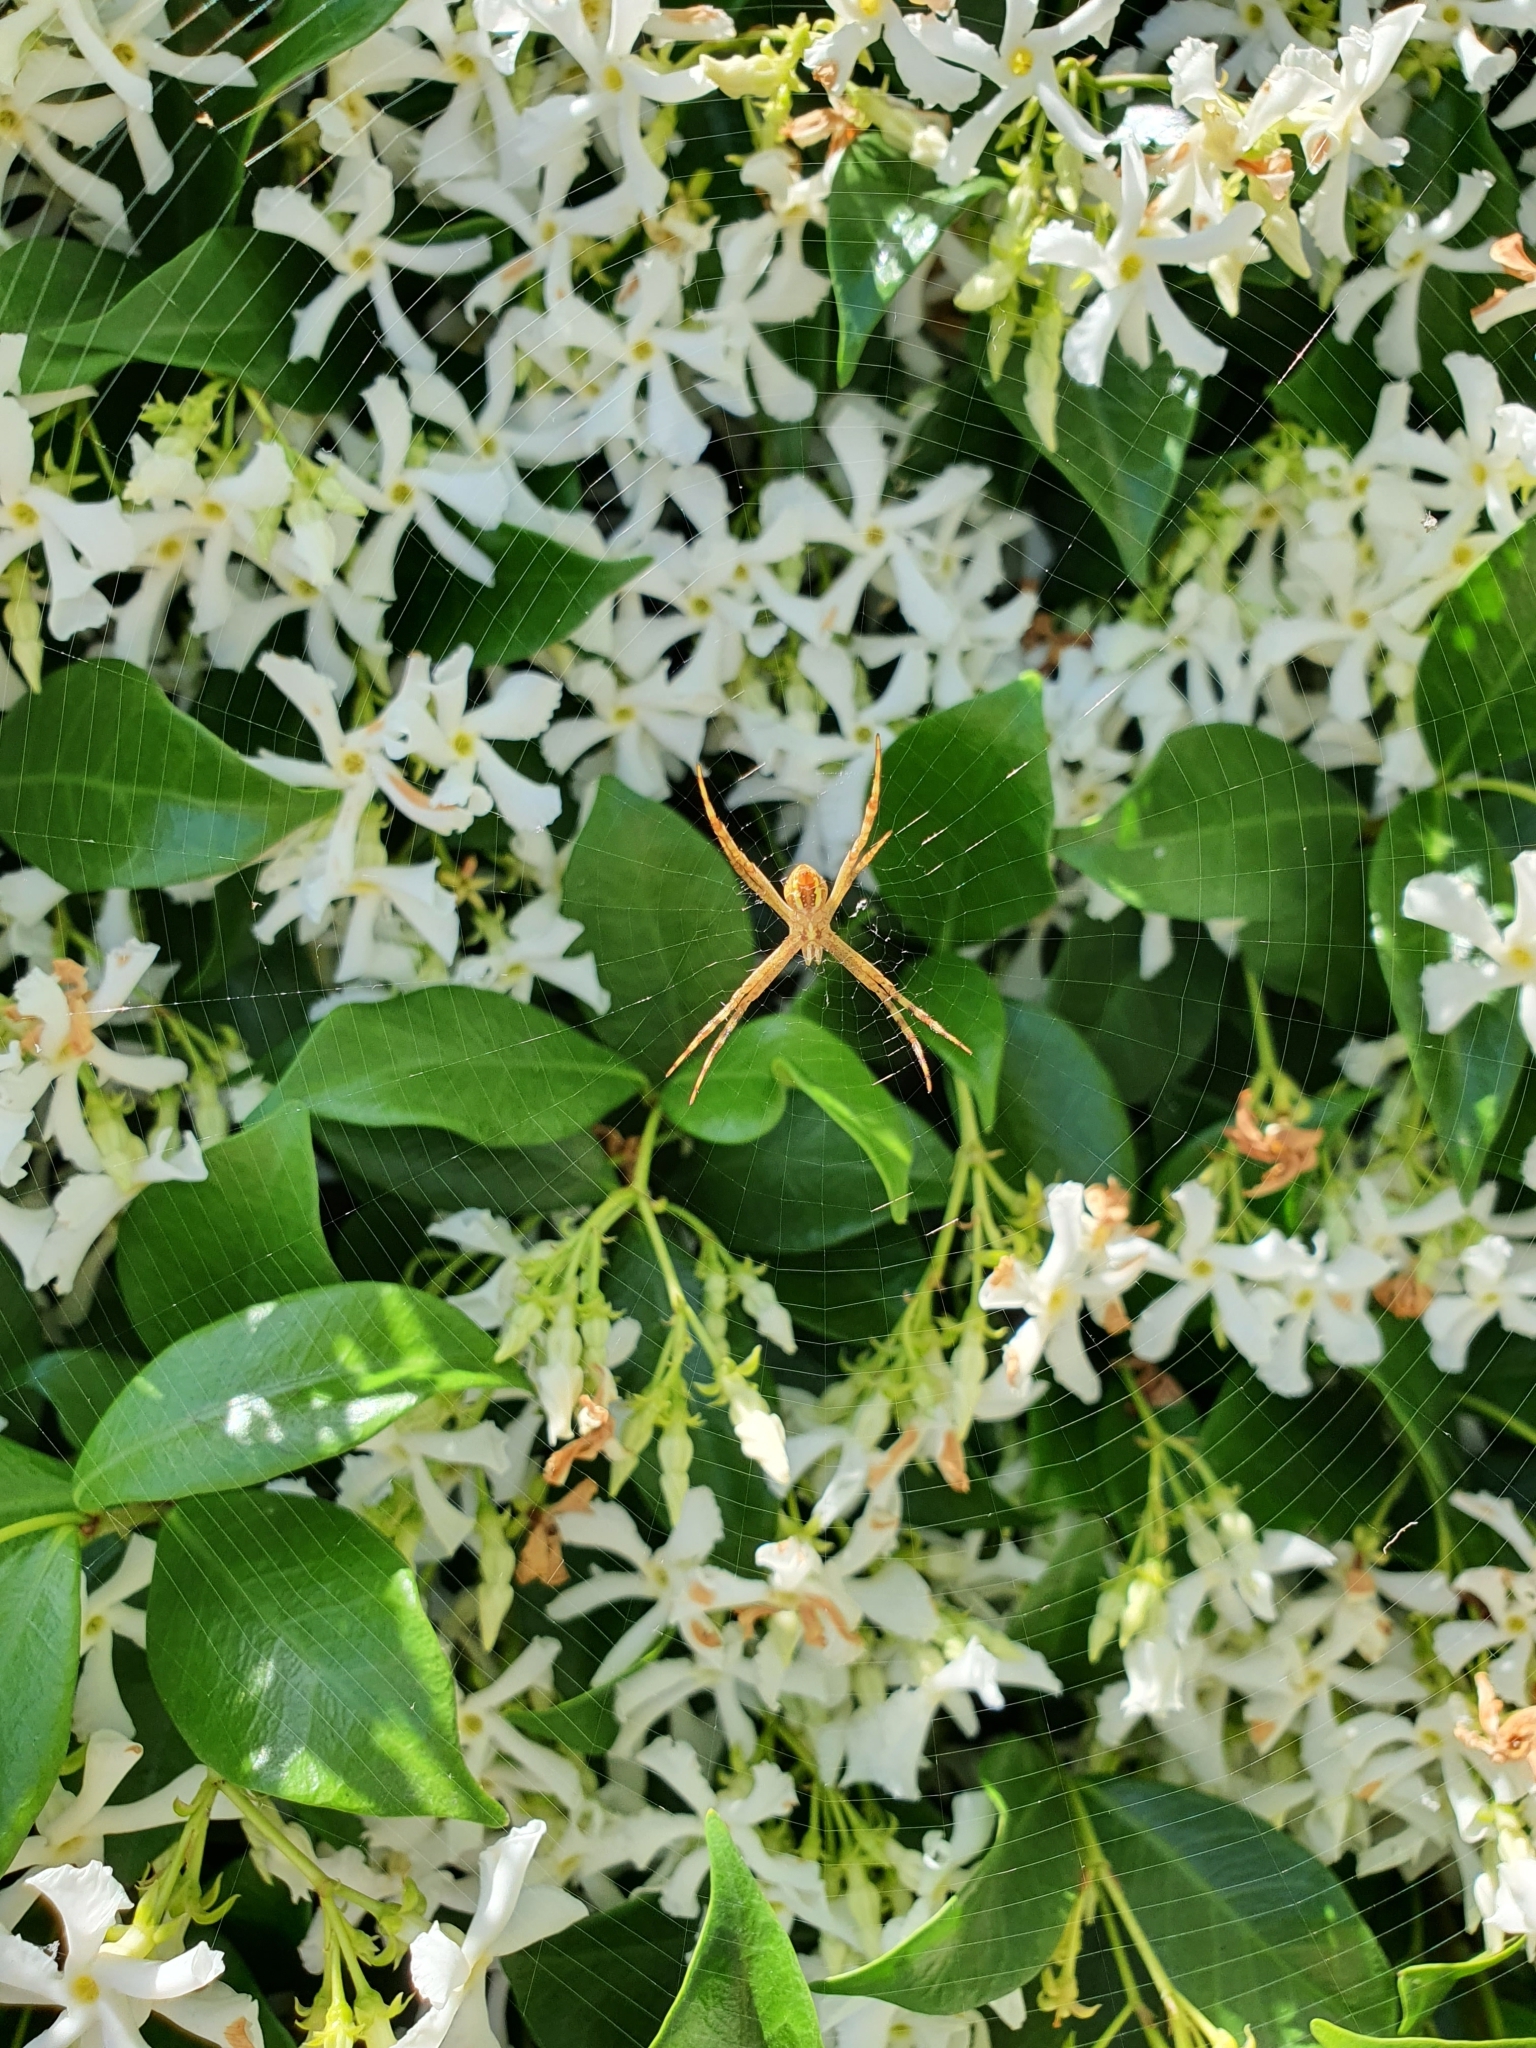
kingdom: Animalia
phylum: Arthropoda
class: Arachnida
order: Araneae
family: Araneidae
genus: Argiope
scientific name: Argiope keyserlingi
